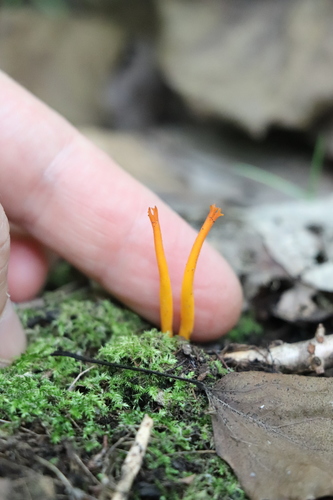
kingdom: Fungi
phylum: Basidiomycota
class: Dacrymycetes
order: Dacrymycetales
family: Dacrymycetaceae
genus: Calocera
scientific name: Calocera viscosa
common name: Yellow stagshorn
